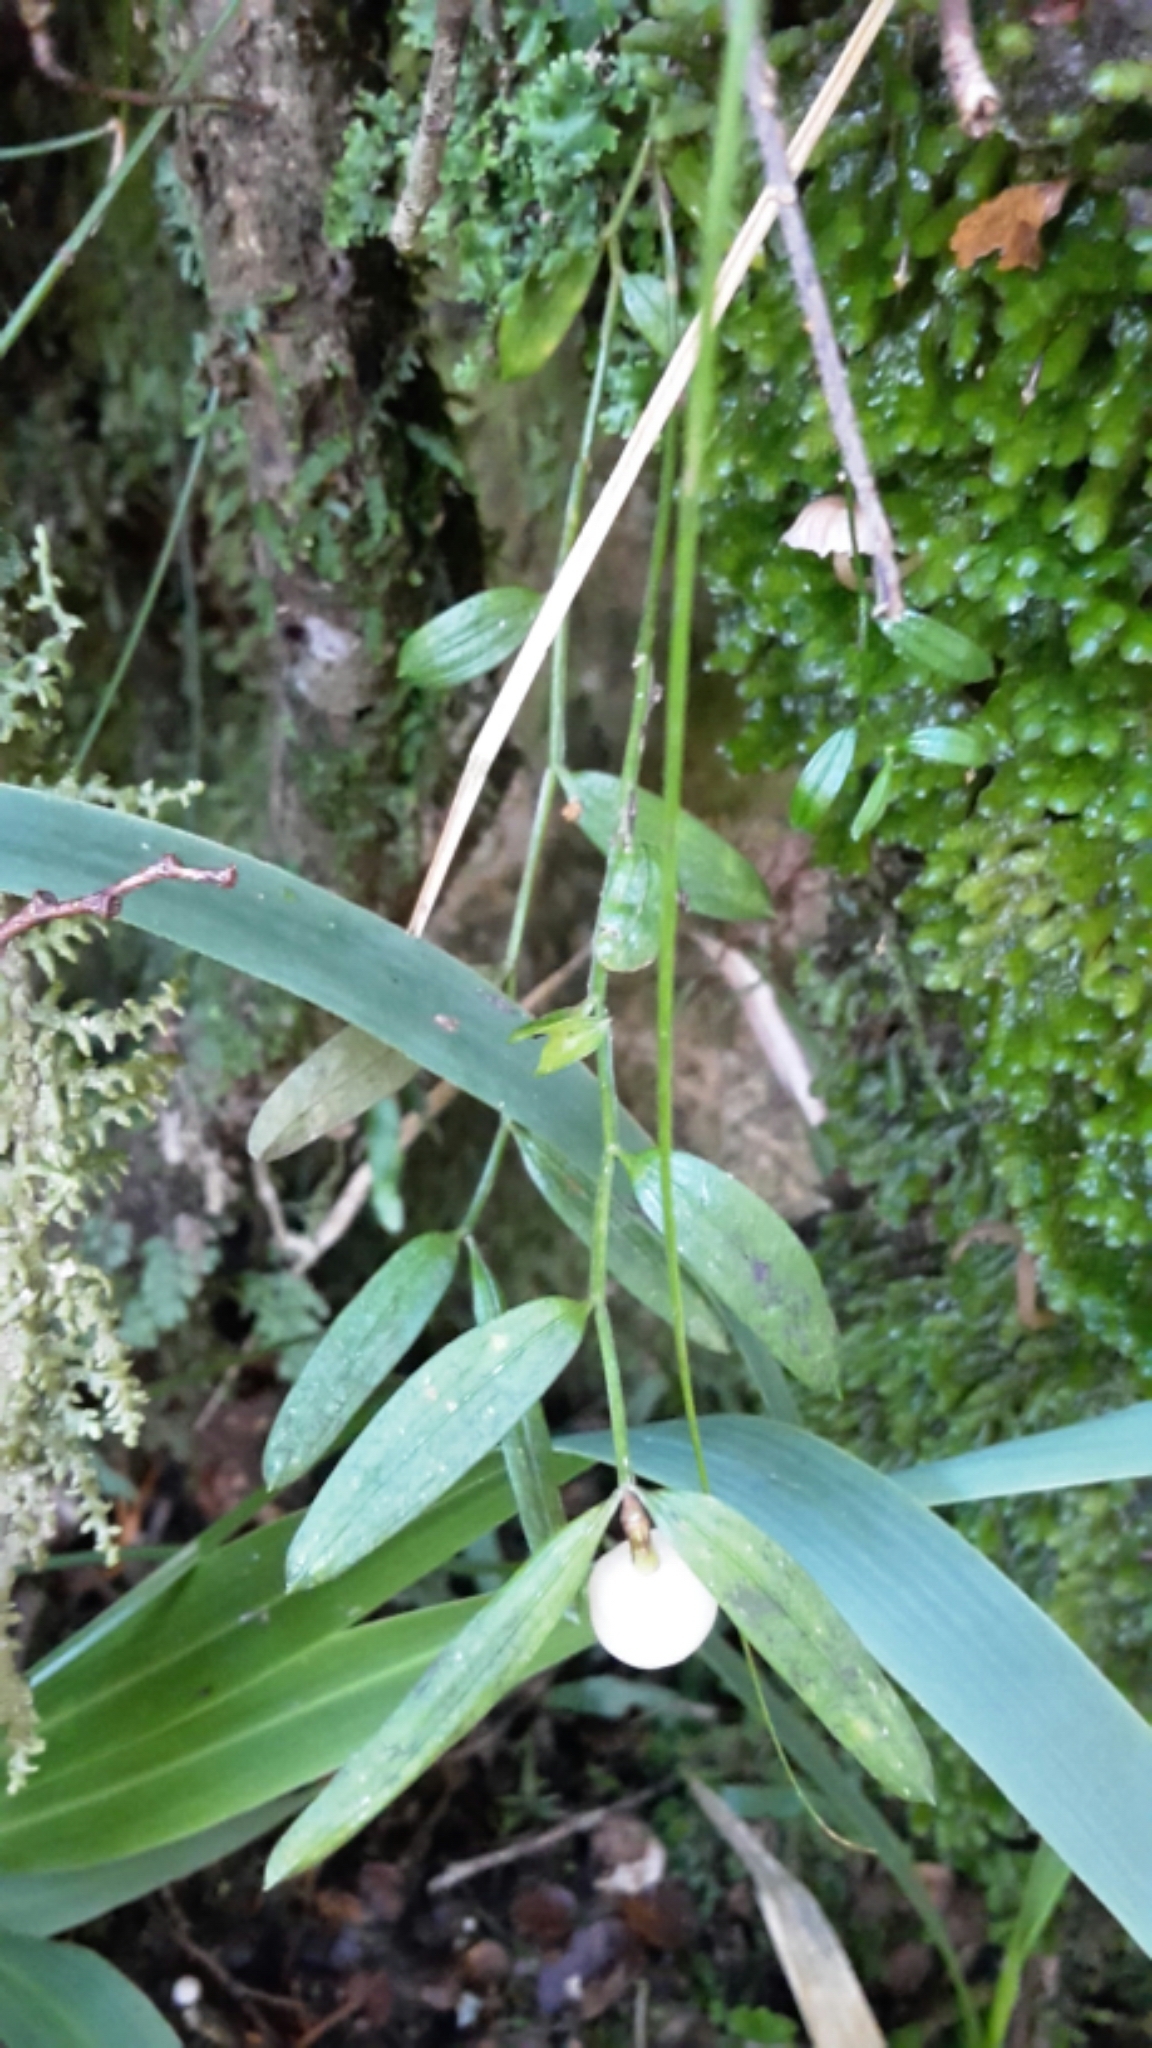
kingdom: Plantae
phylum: Tracheophyta
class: Liliopsida
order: Liliales
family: Alstroemeriaceae
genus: Luzuriaga
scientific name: Luzuriaga parviflora
